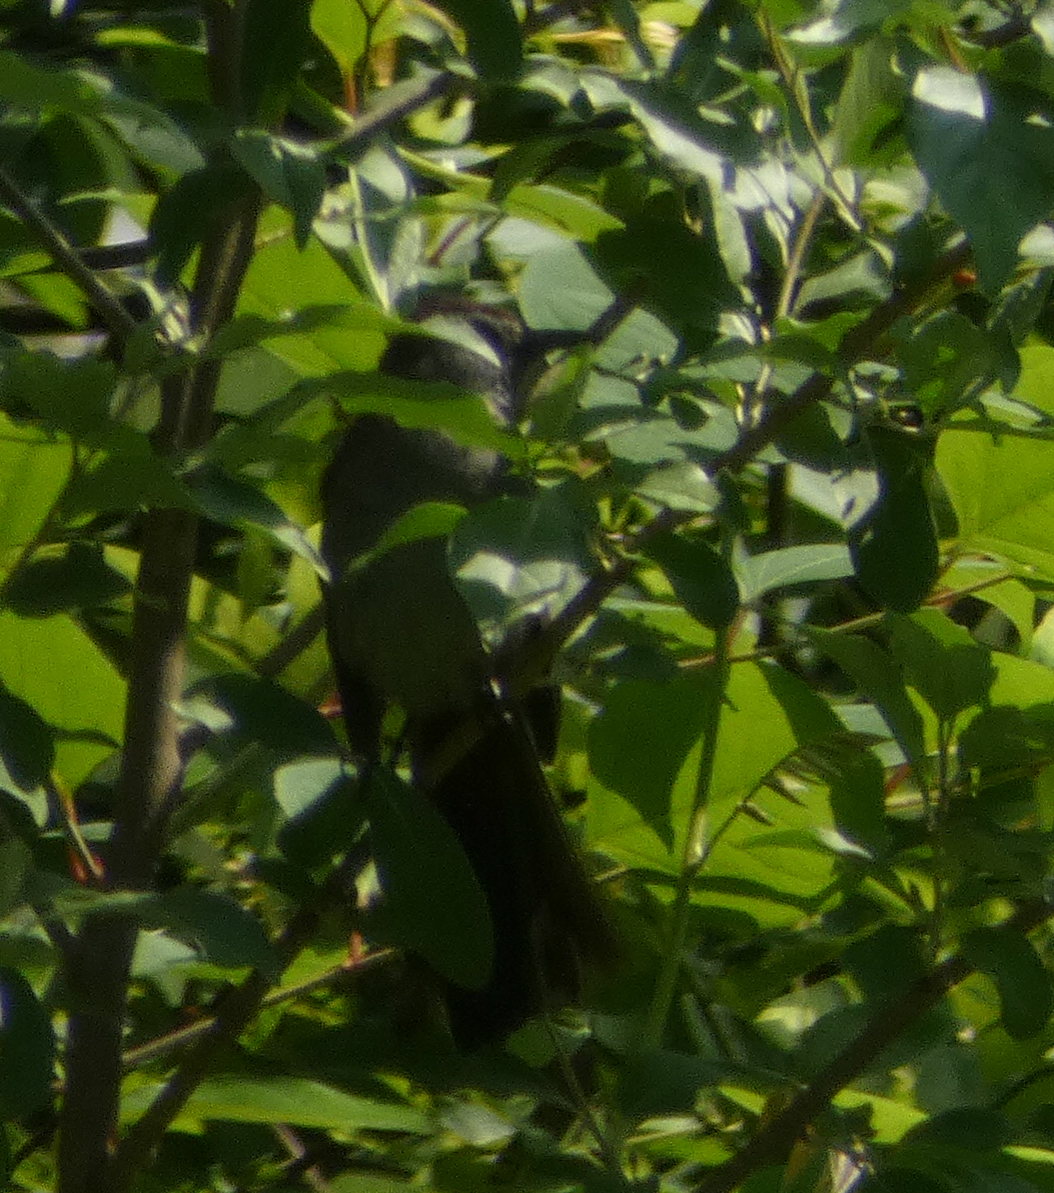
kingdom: Animalia
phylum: Chordata
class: Aves
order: Passeriformes
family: Mimidae
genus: Dumetella
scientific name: Dumetella carolinensis
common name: Gray catbird
